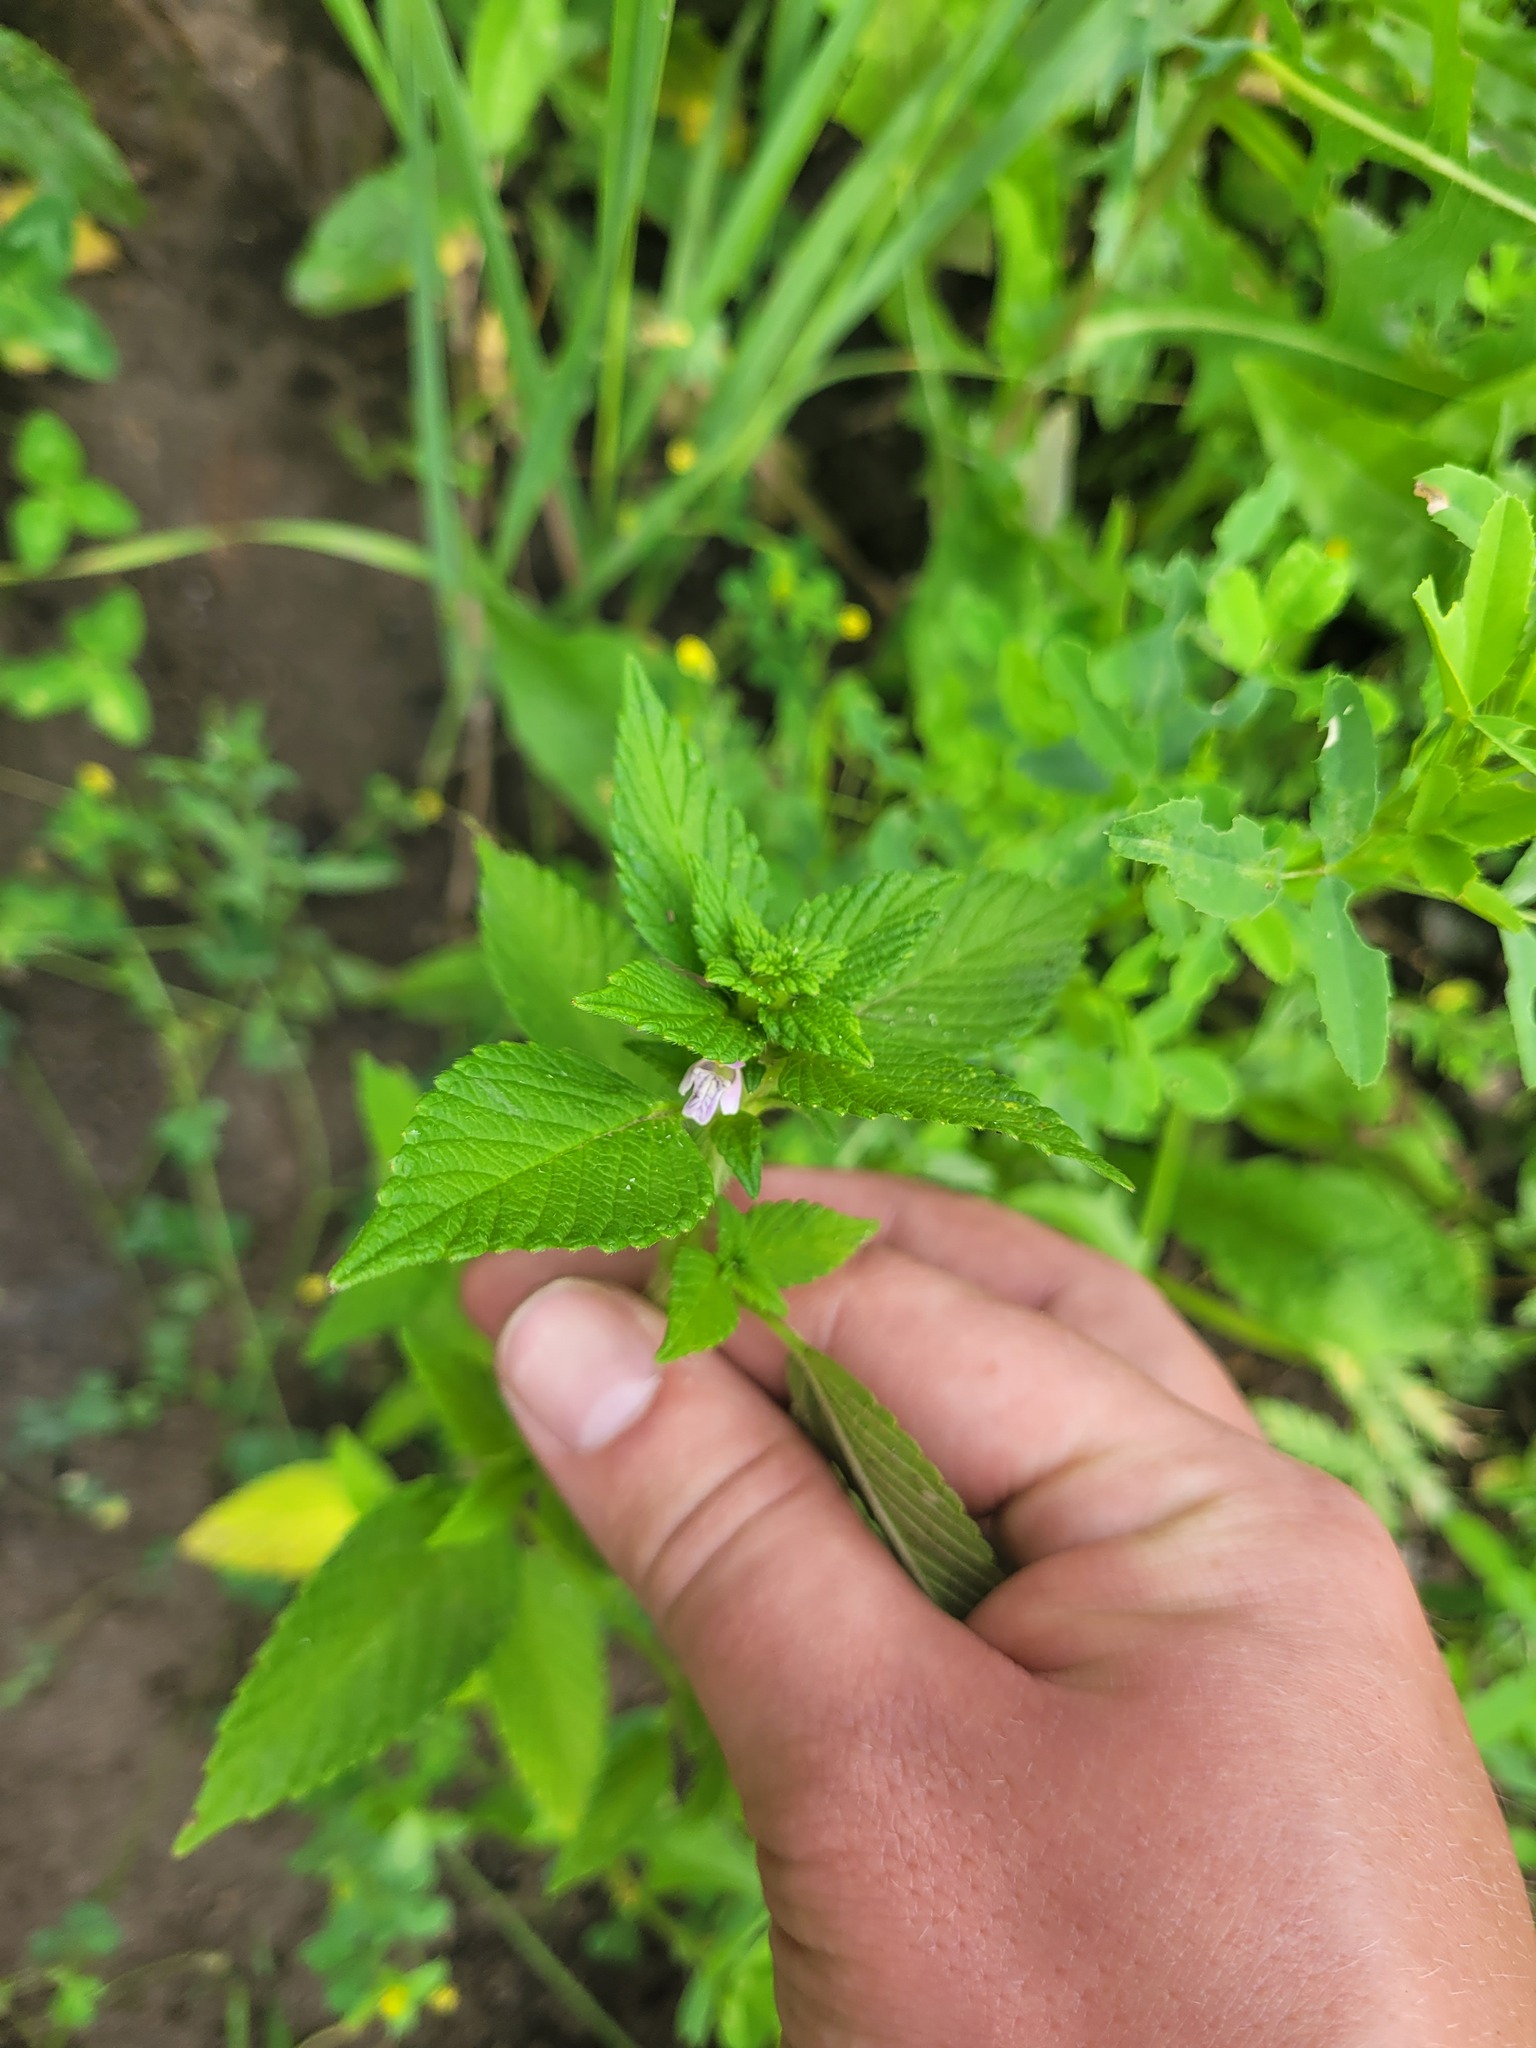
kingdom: Plantae
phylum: Tracheophyta
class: Magnoliopsida
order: Lamiales
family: Lamiaceae
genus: Galeopsis
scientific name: Galeopsis bifida
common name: Bifid hemp-nettle
